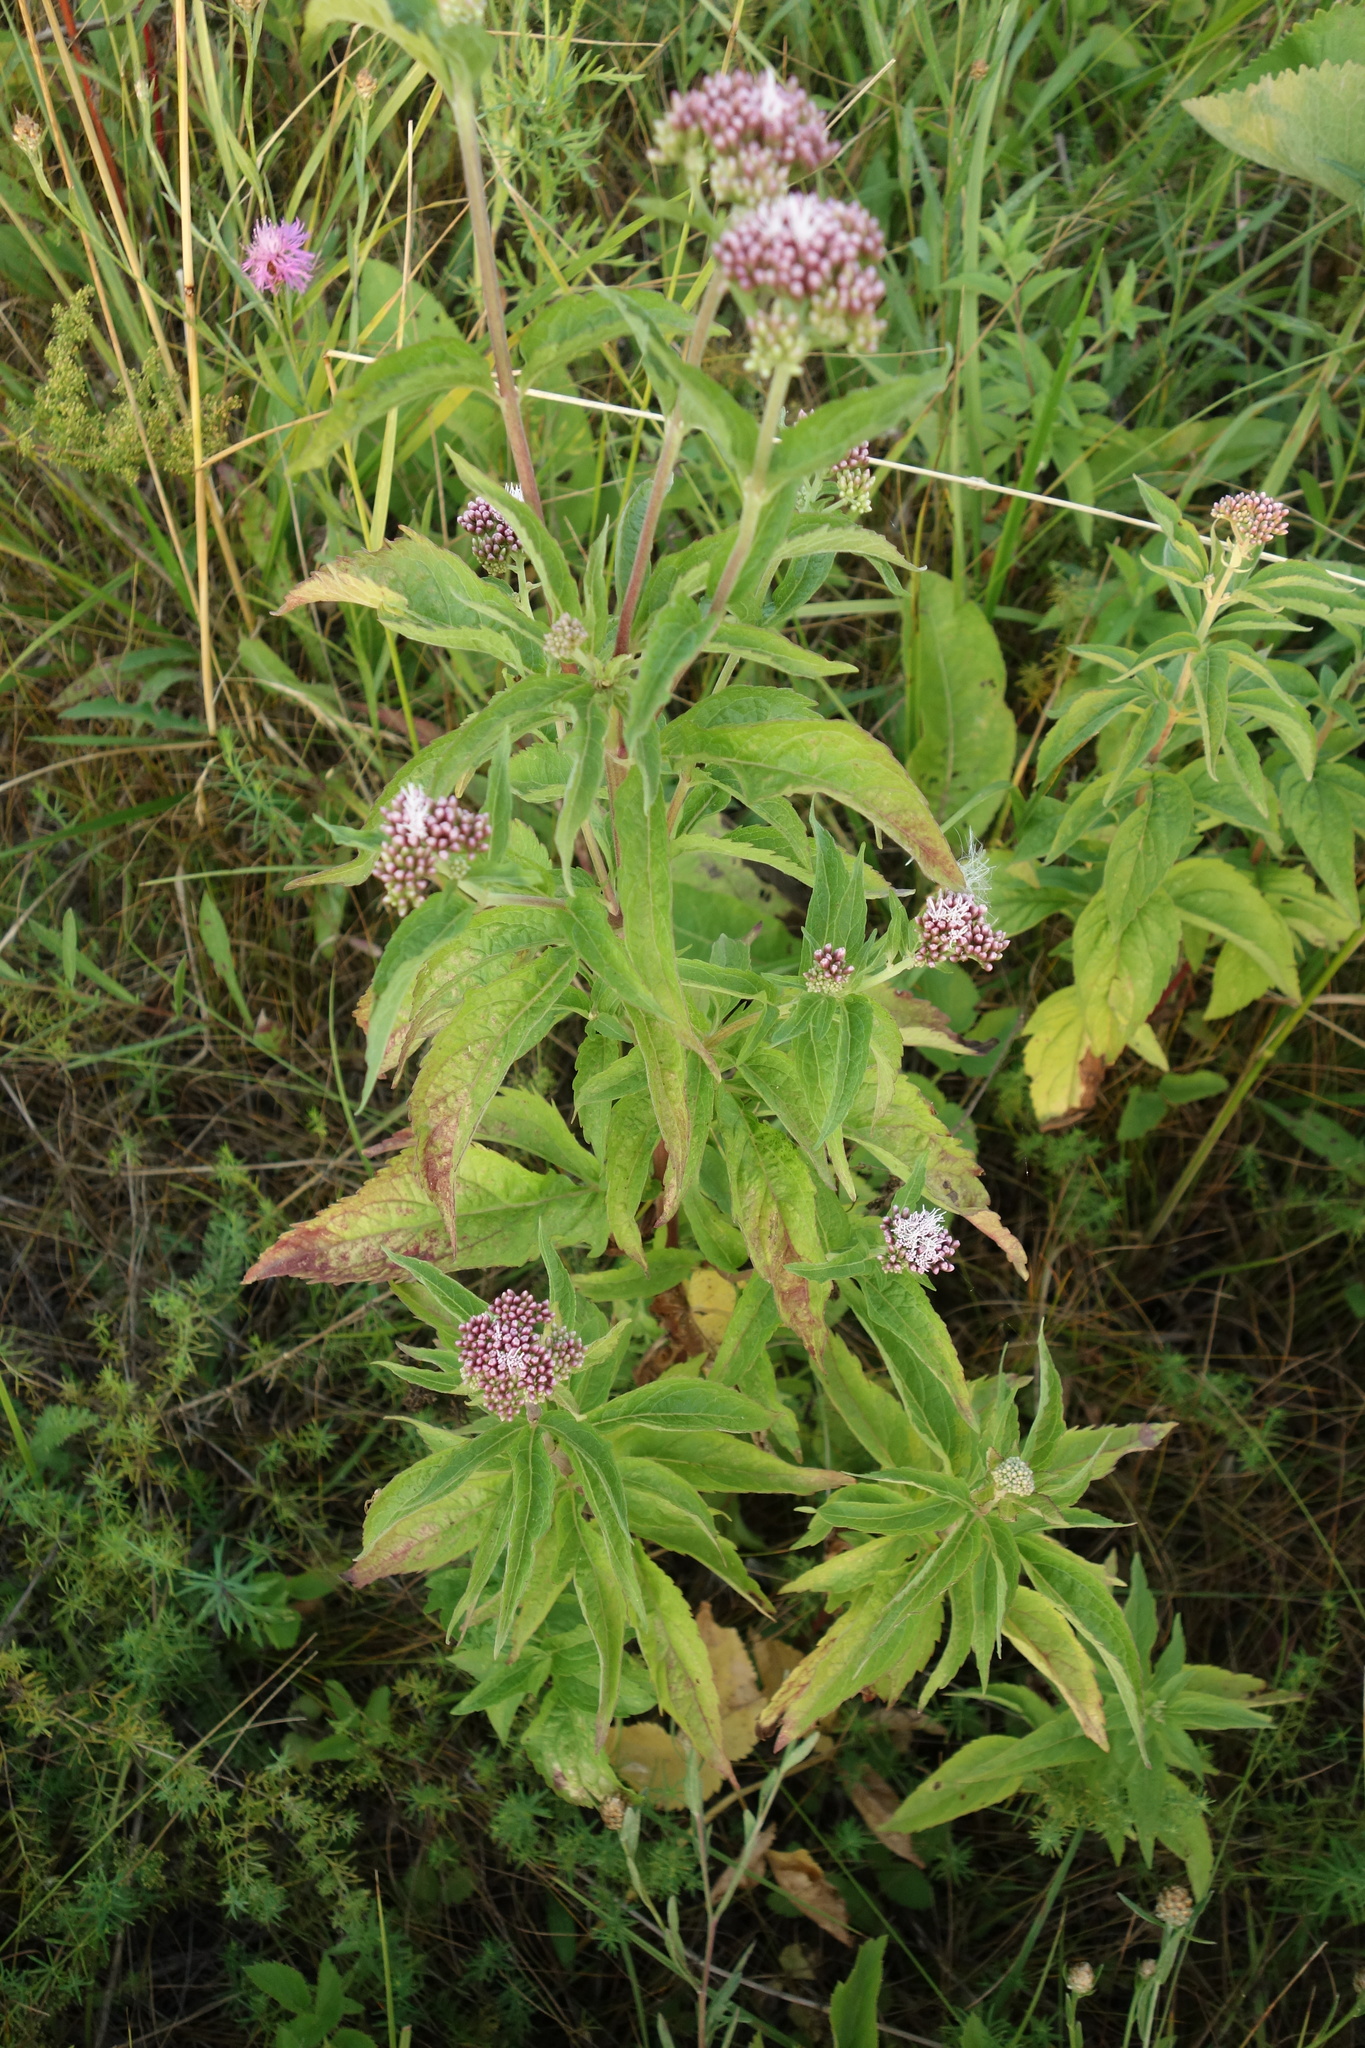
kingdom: Plantae
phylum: Tracheophyta
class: Magnoliopsida
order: Asterales
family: Asteraceae
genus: Eupatorium
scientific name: Eupatorium cannabinum
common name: Hemp-agrimony
